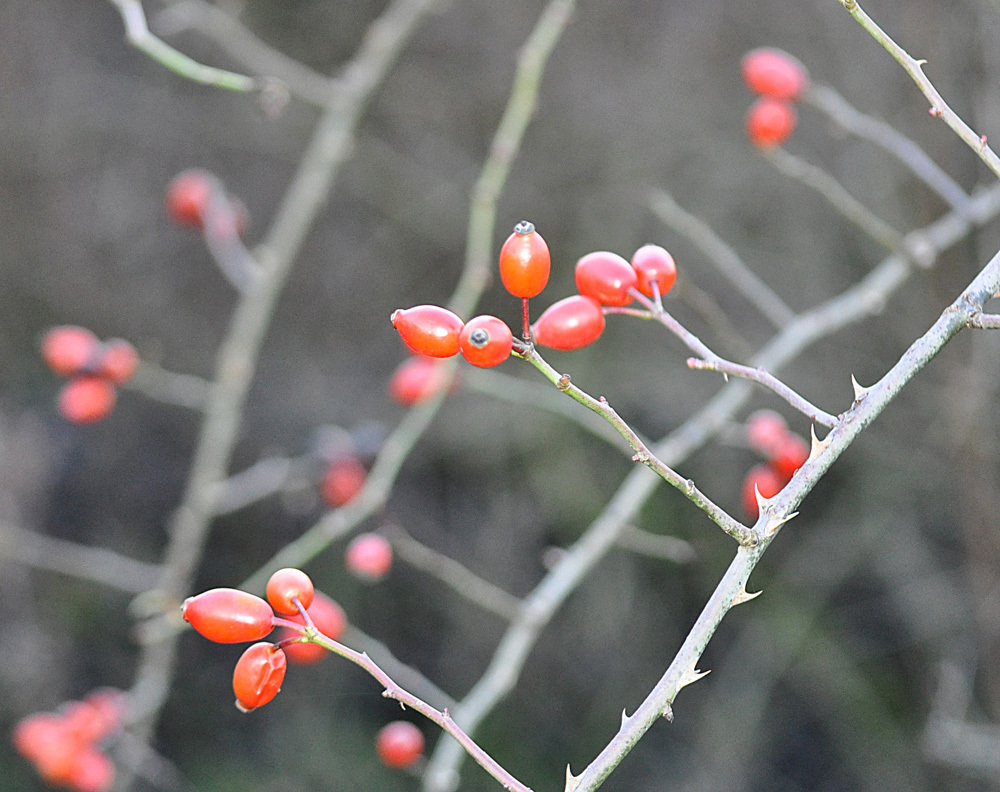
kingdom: Plantae
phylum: Tracheophyta
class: Magnoliopsida
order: Rosales
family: Rosaceae
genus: Rosa
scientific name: Rosa canina
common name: Dog rose
